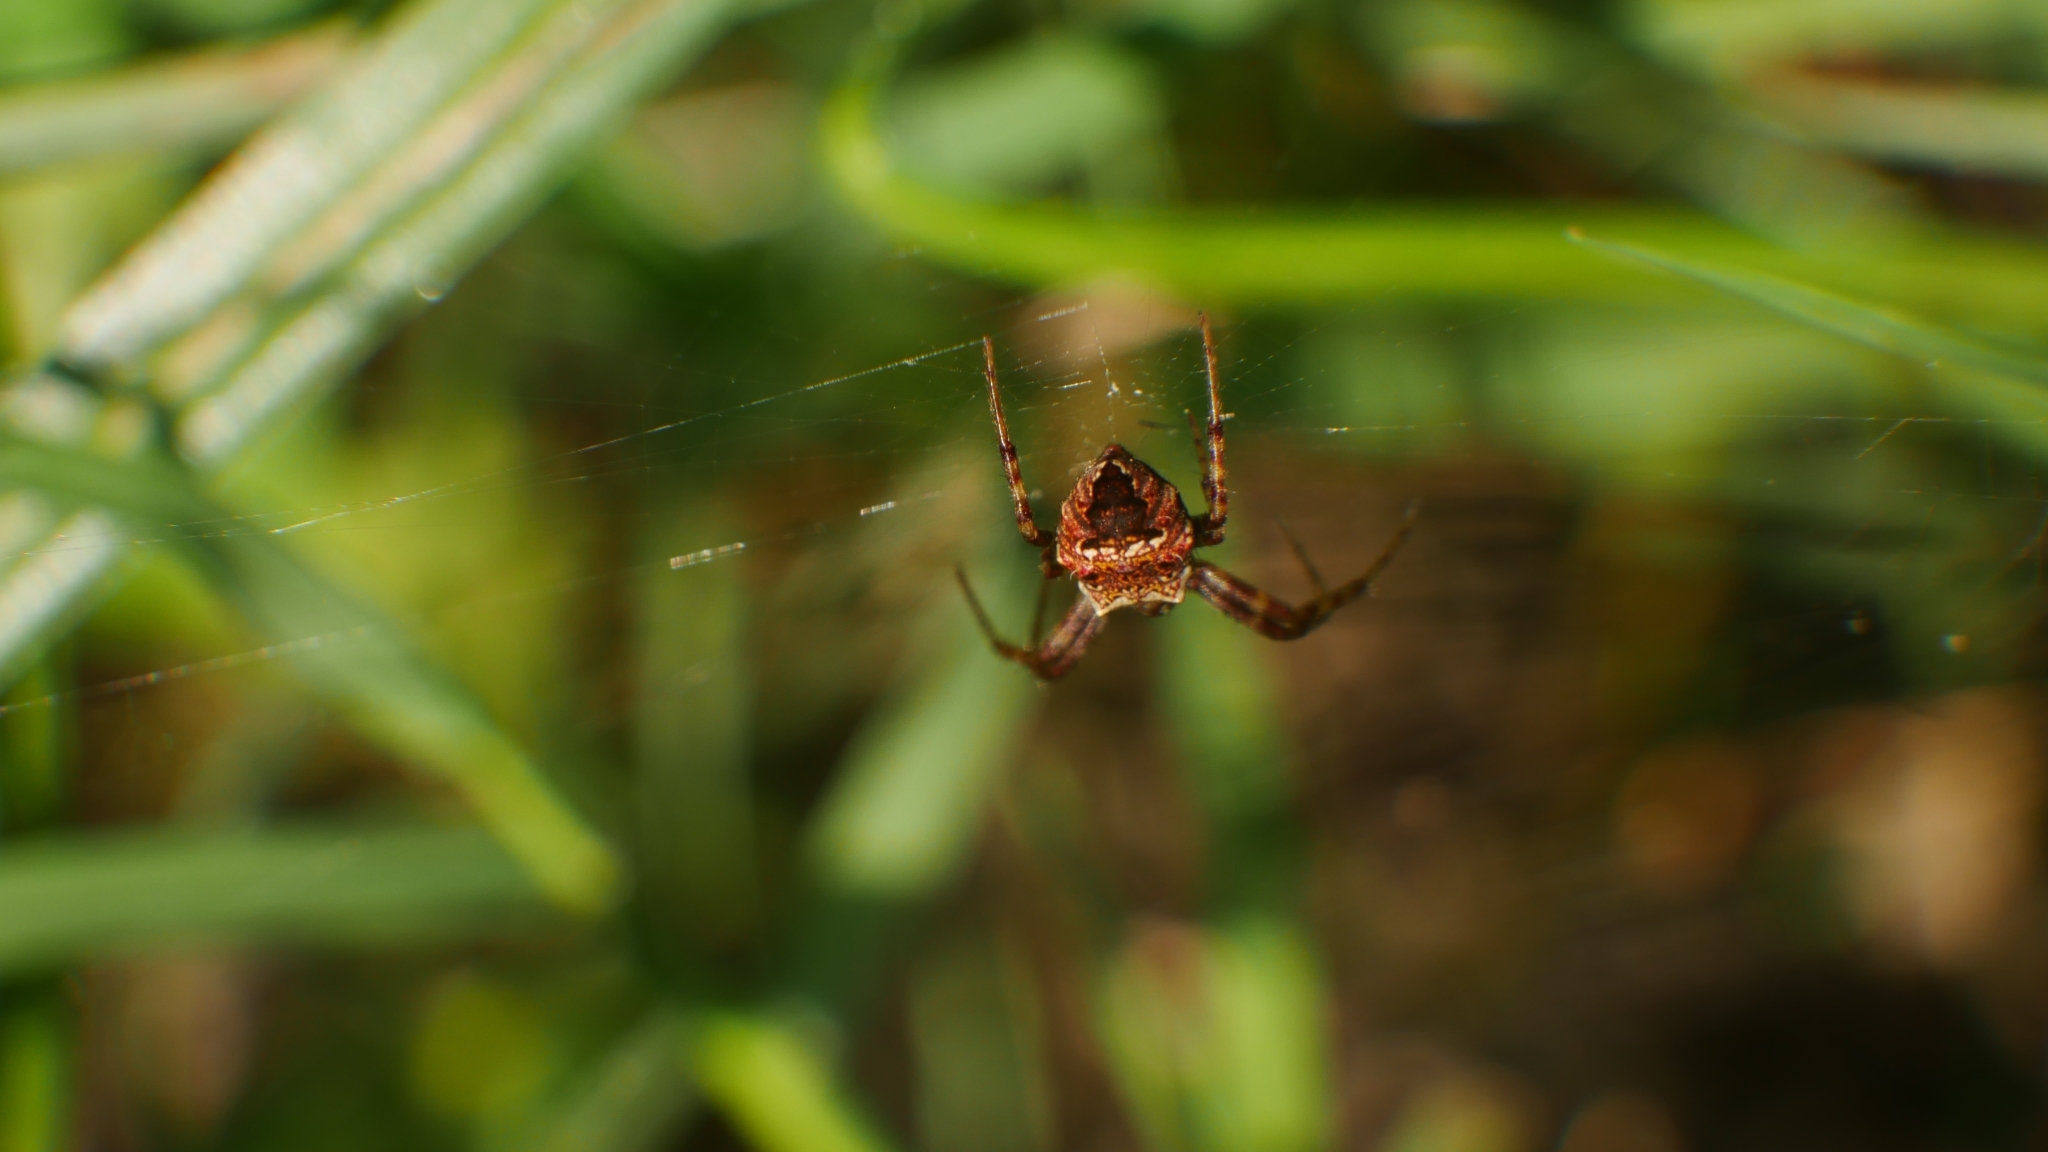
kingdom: Animalia
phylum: Arthropoda
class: Arachnida
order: Araneae
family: Araneidae
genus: Gea
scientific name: Gea heptagon
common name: Orb weavers
